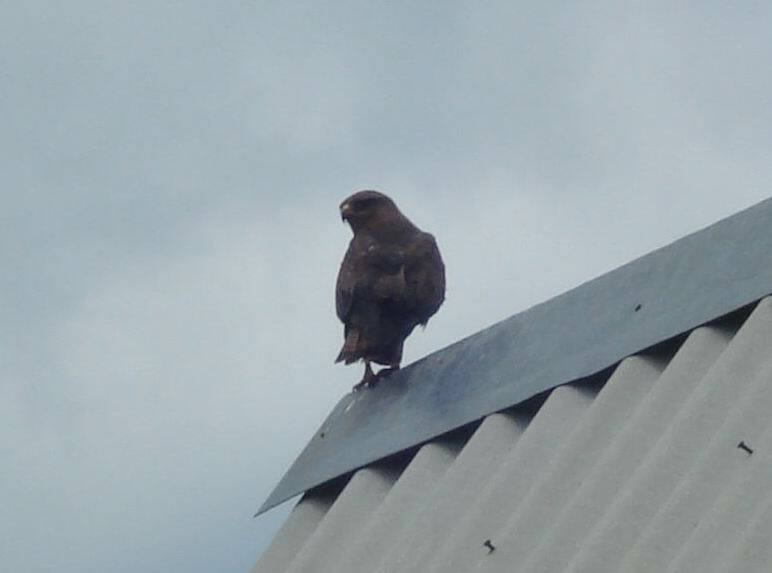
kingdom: Animalia
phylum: Chordata
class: Aves
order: Accipitriformes
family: Accipitridae
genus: Buteo
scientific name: Buteo buteo
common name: Common buzzard
